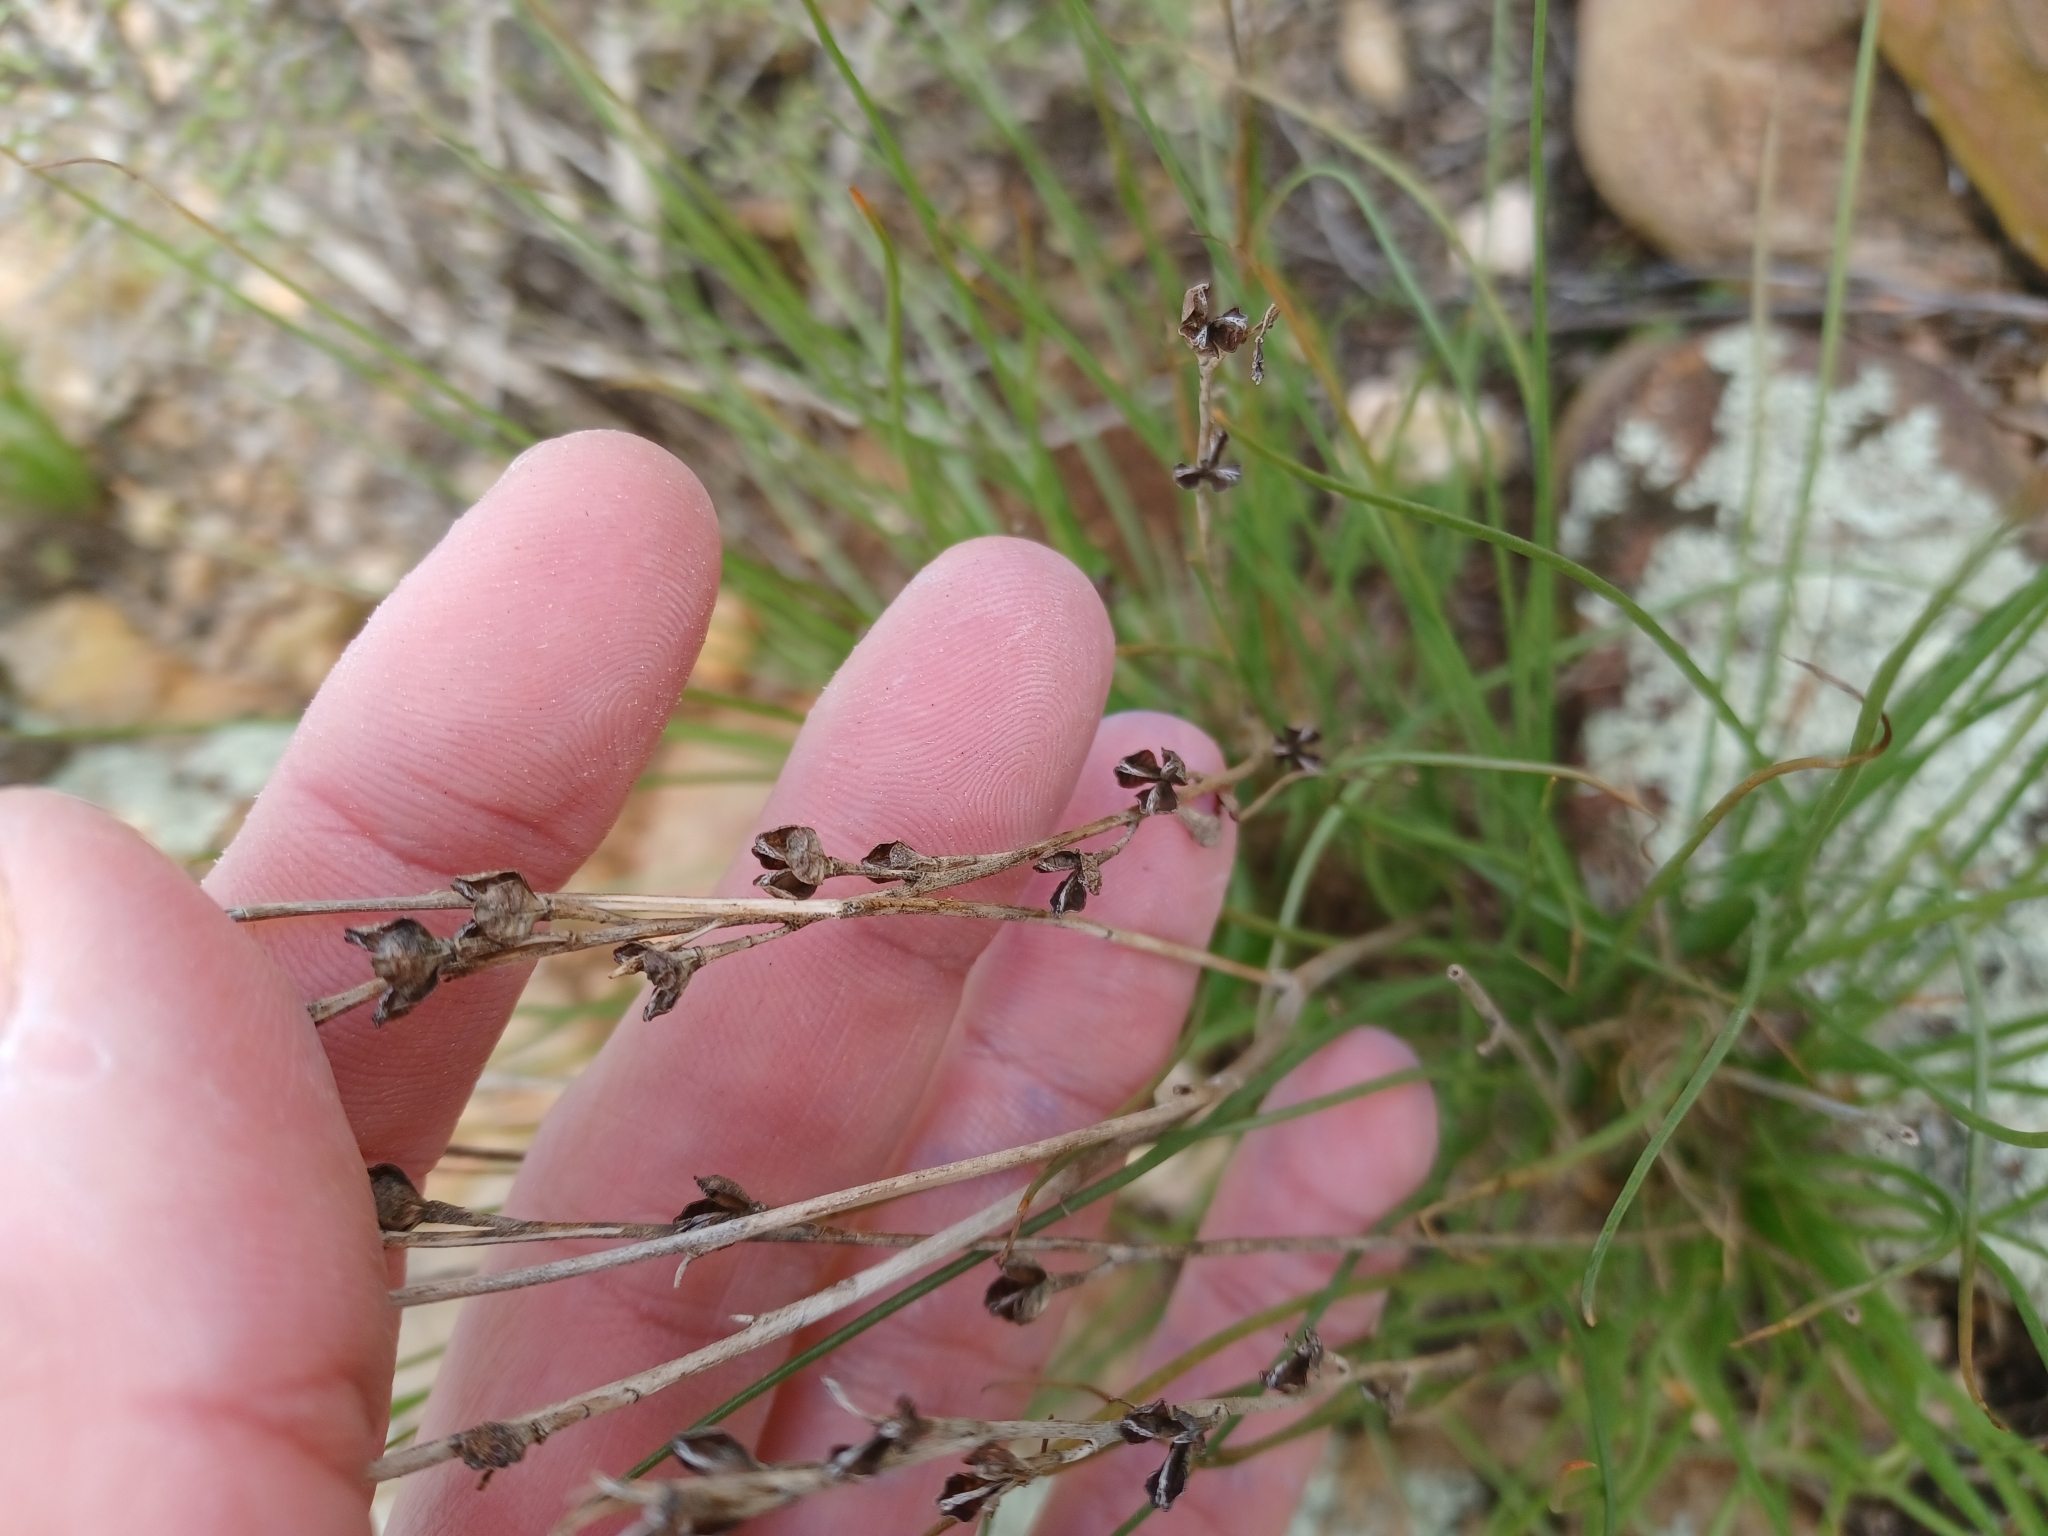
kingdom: Plantae
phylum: Tracheophyta
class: Liliopsida
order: Asparagales
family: Asphodelaceae
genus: Asphodelus
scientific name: Asphodelus fistulosus
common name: Onionweed
